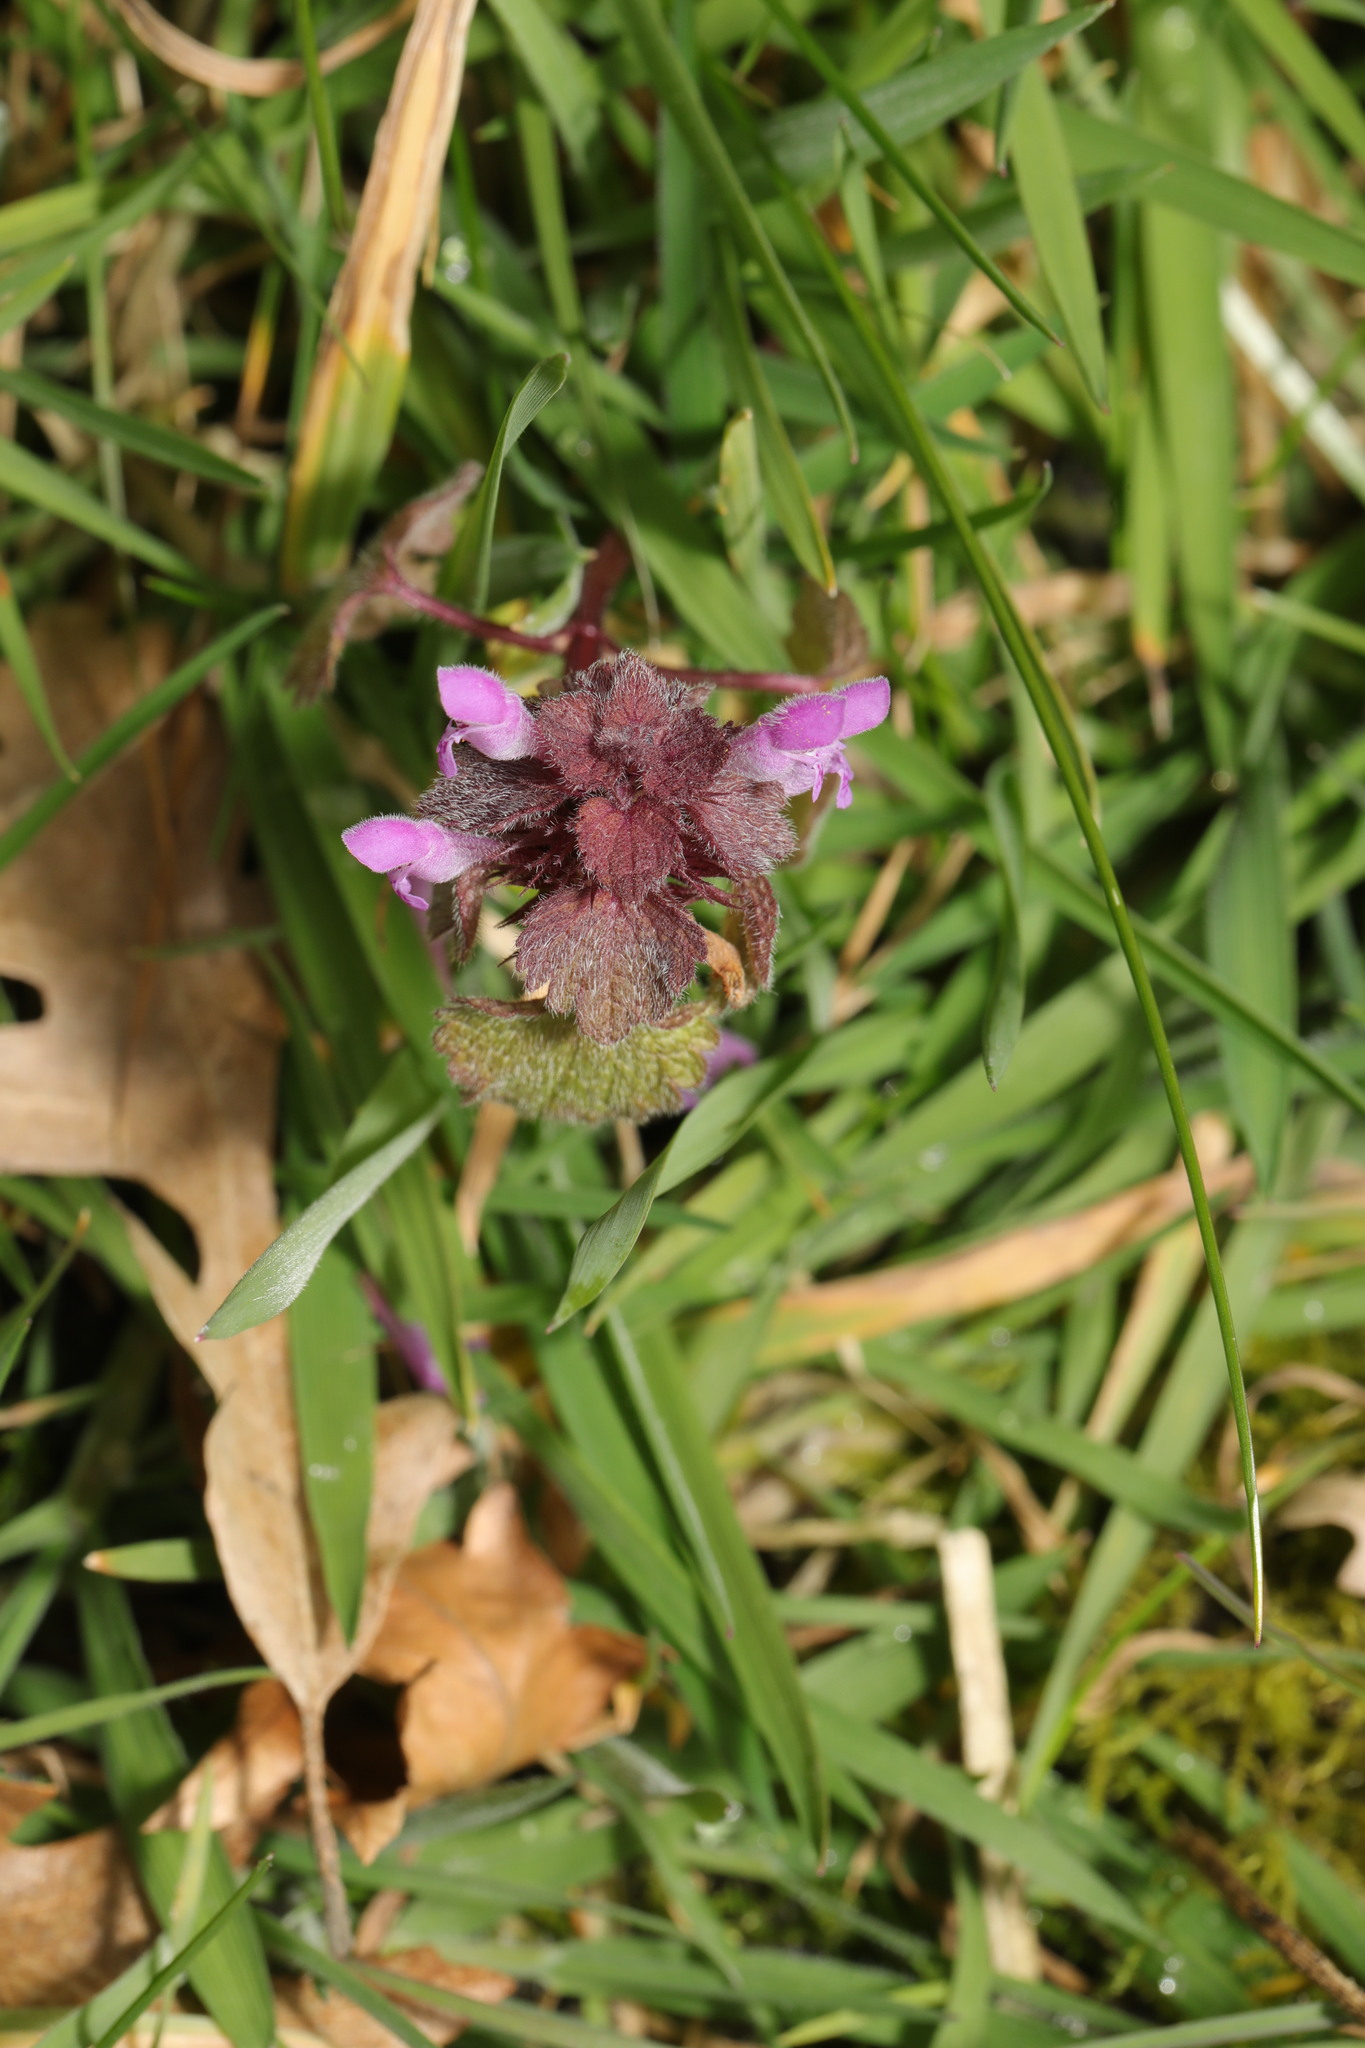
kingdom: Plantae
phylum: Tracheophyta
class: Magnoliopsida
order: Lamiales
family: Lamiaceae
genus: Lamium
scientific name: Lamium purpureum
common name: Red dead-nettle
